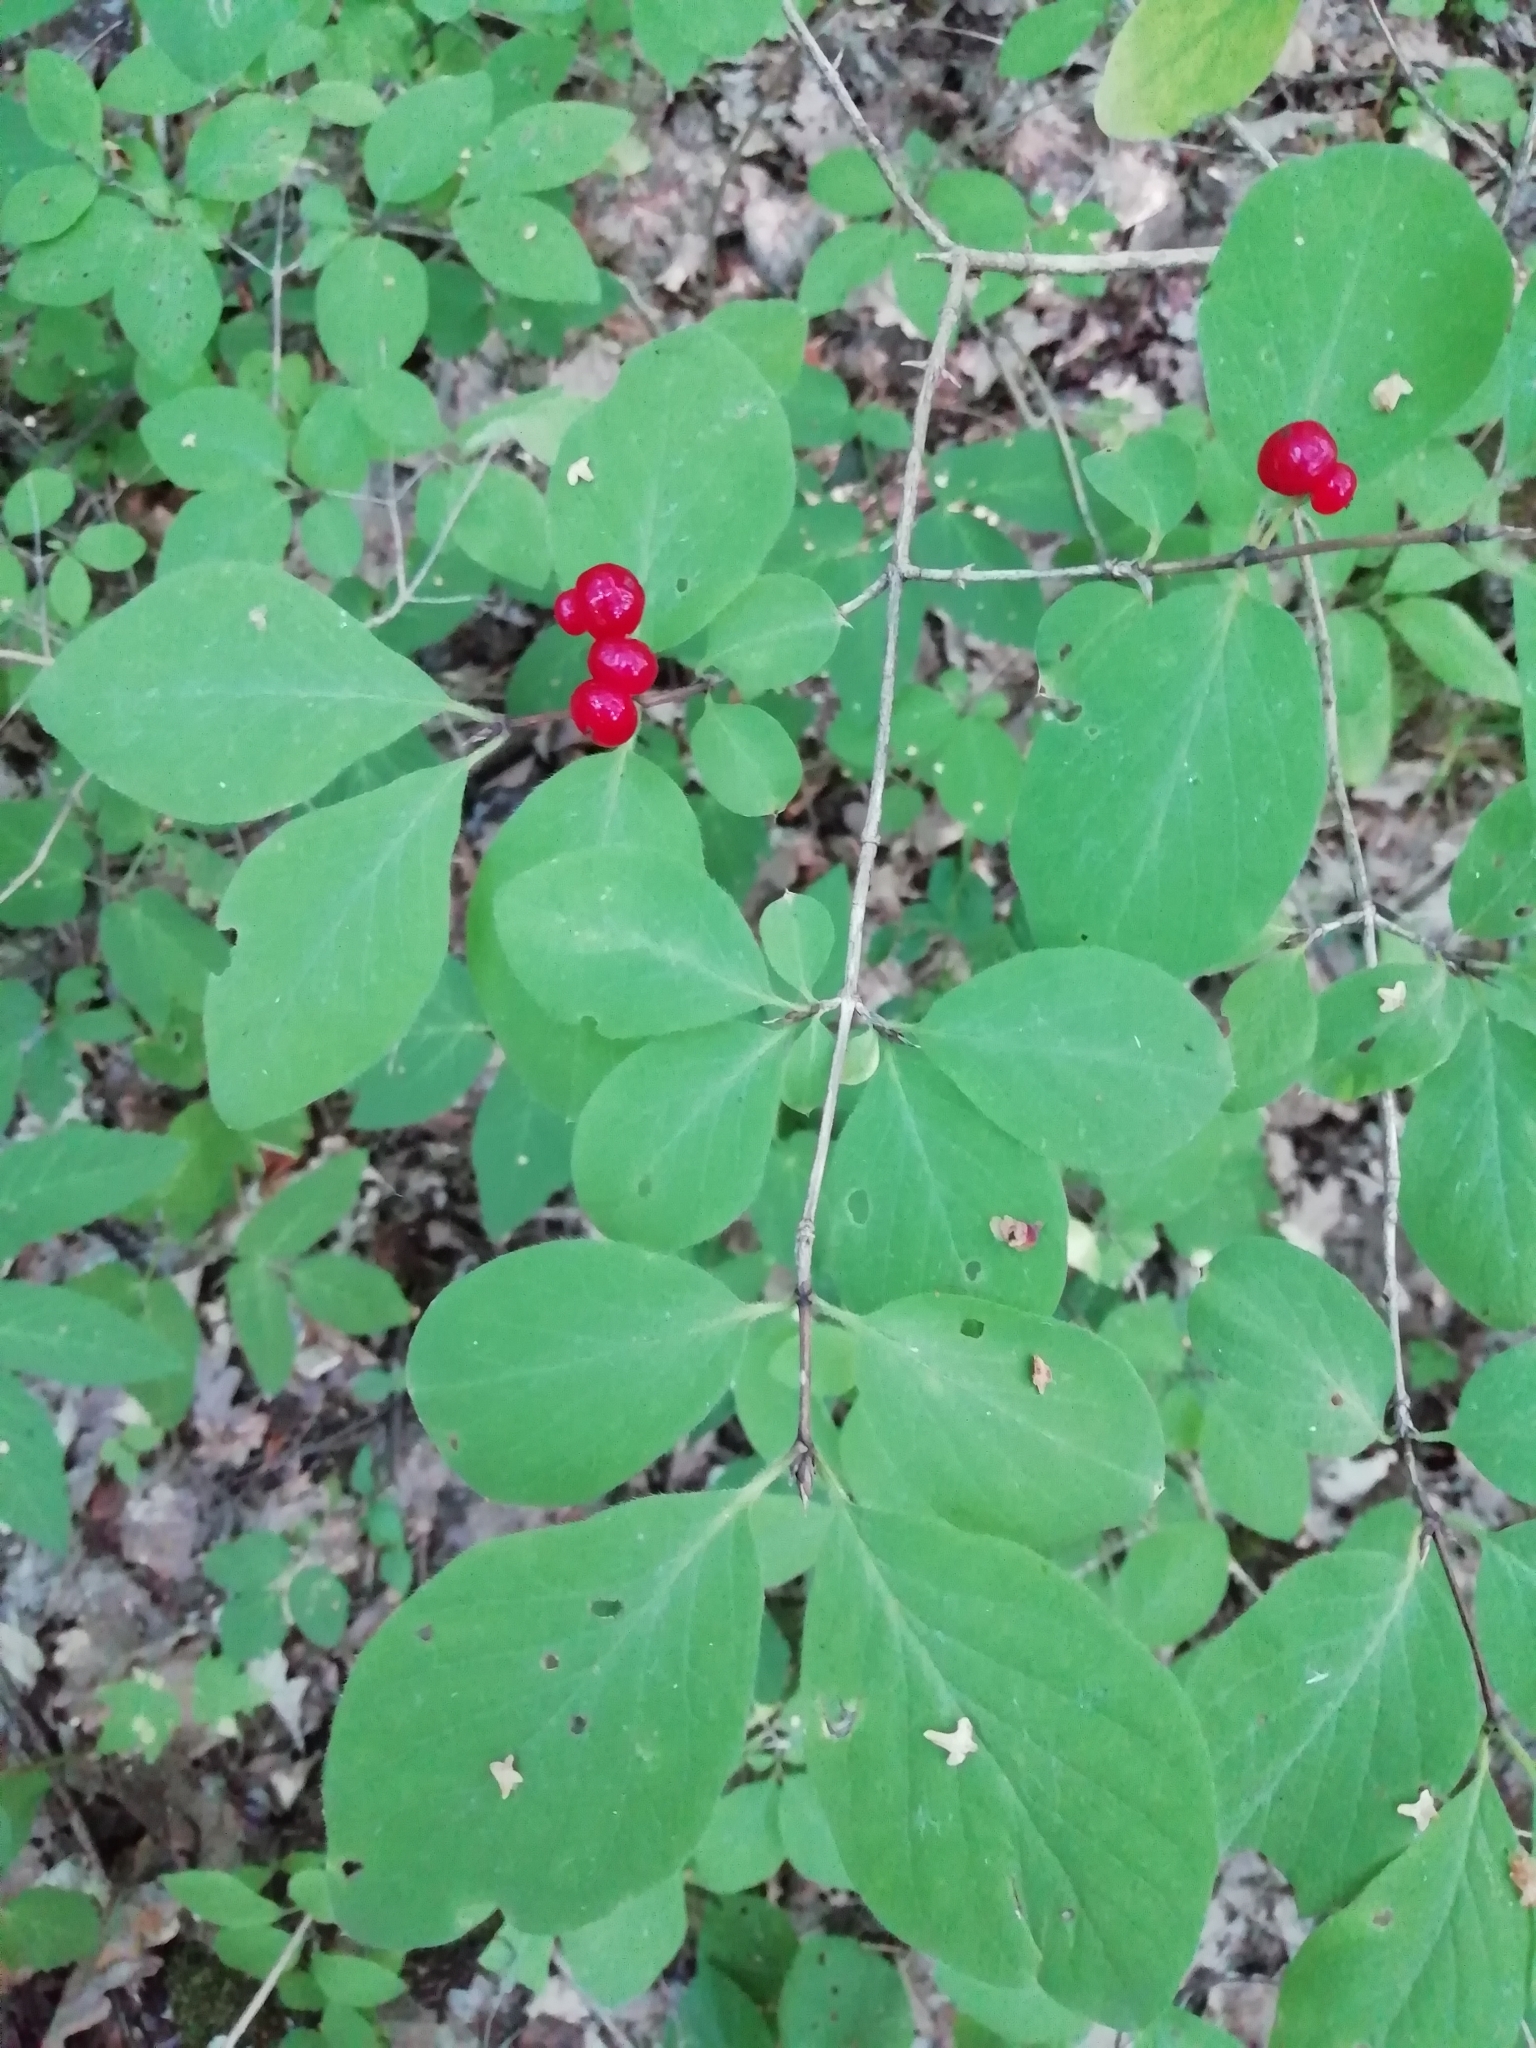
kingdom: Plantae
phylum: Tracheophyta
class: Magnoliopsida
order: Dipsacales
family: Caprifoliaceae
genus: Lonicera
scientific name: Lonicera xylosteum
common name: Fly honeysuckle
